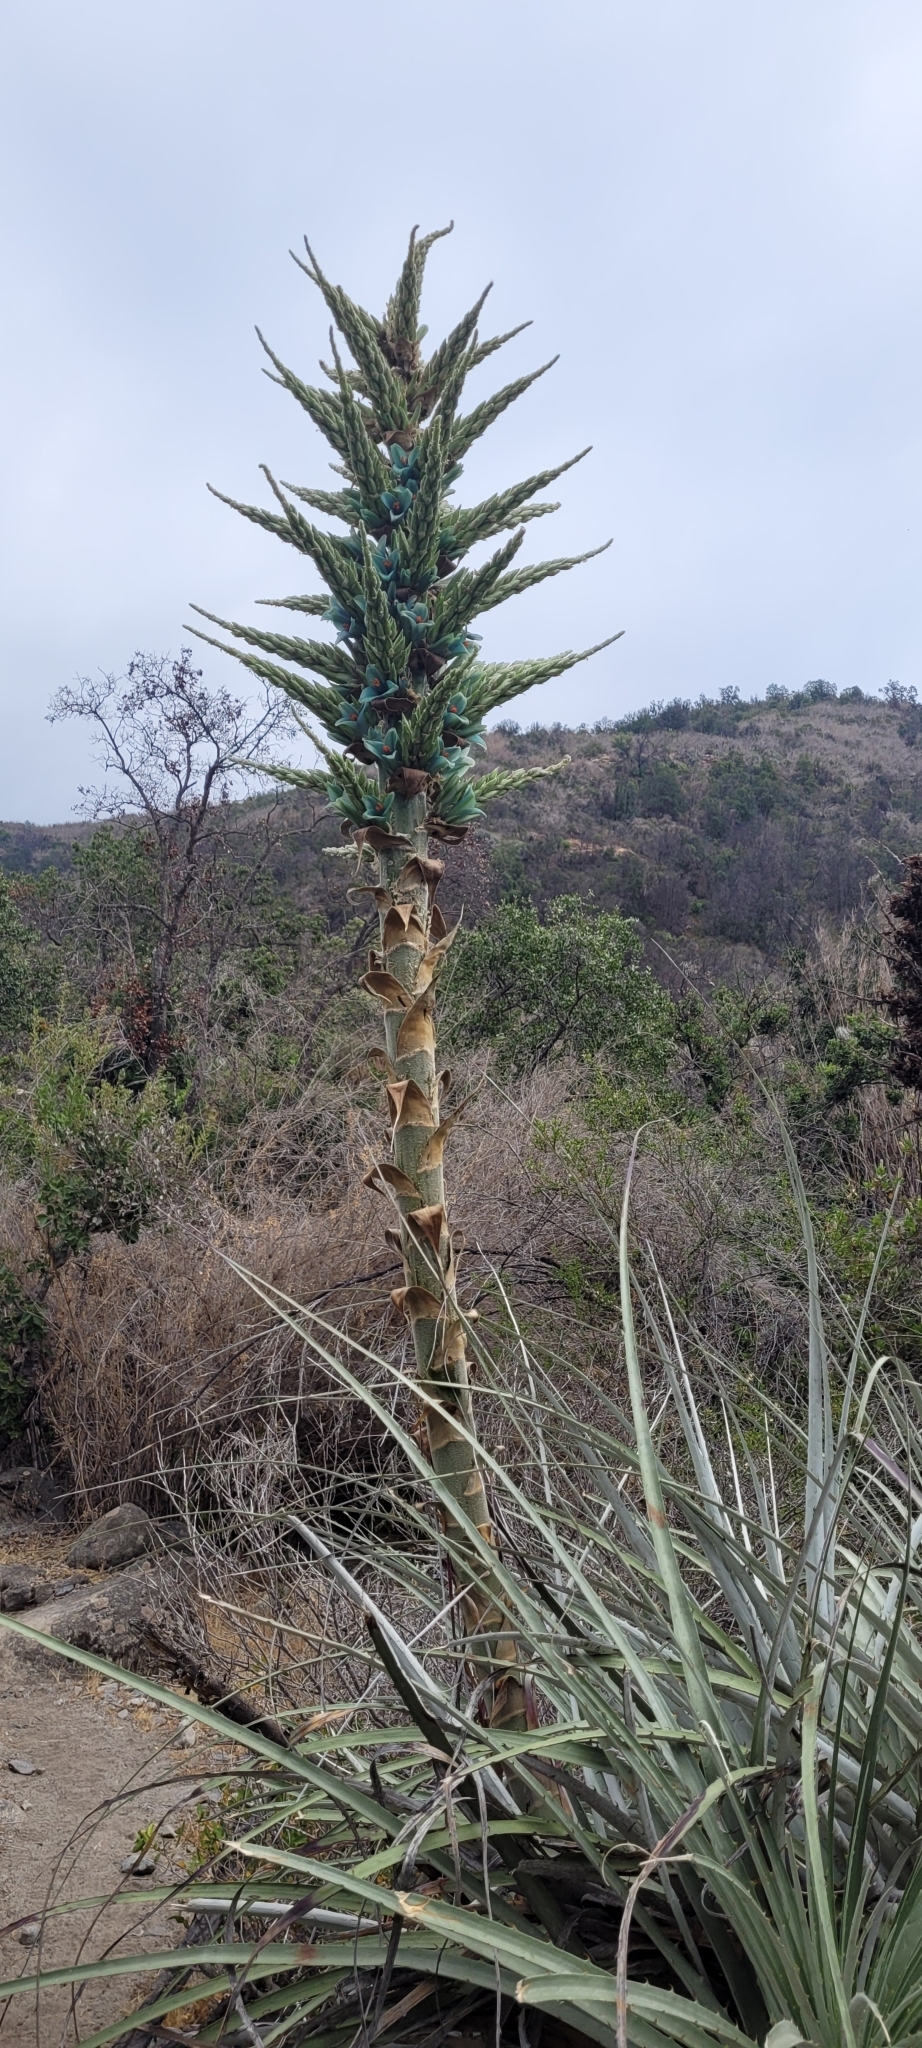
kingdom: Plantae
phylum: Tracheophyta
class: Liliopsida
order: Poales
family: Bromeliaceae
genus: Puya
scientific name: Puya alpestris
